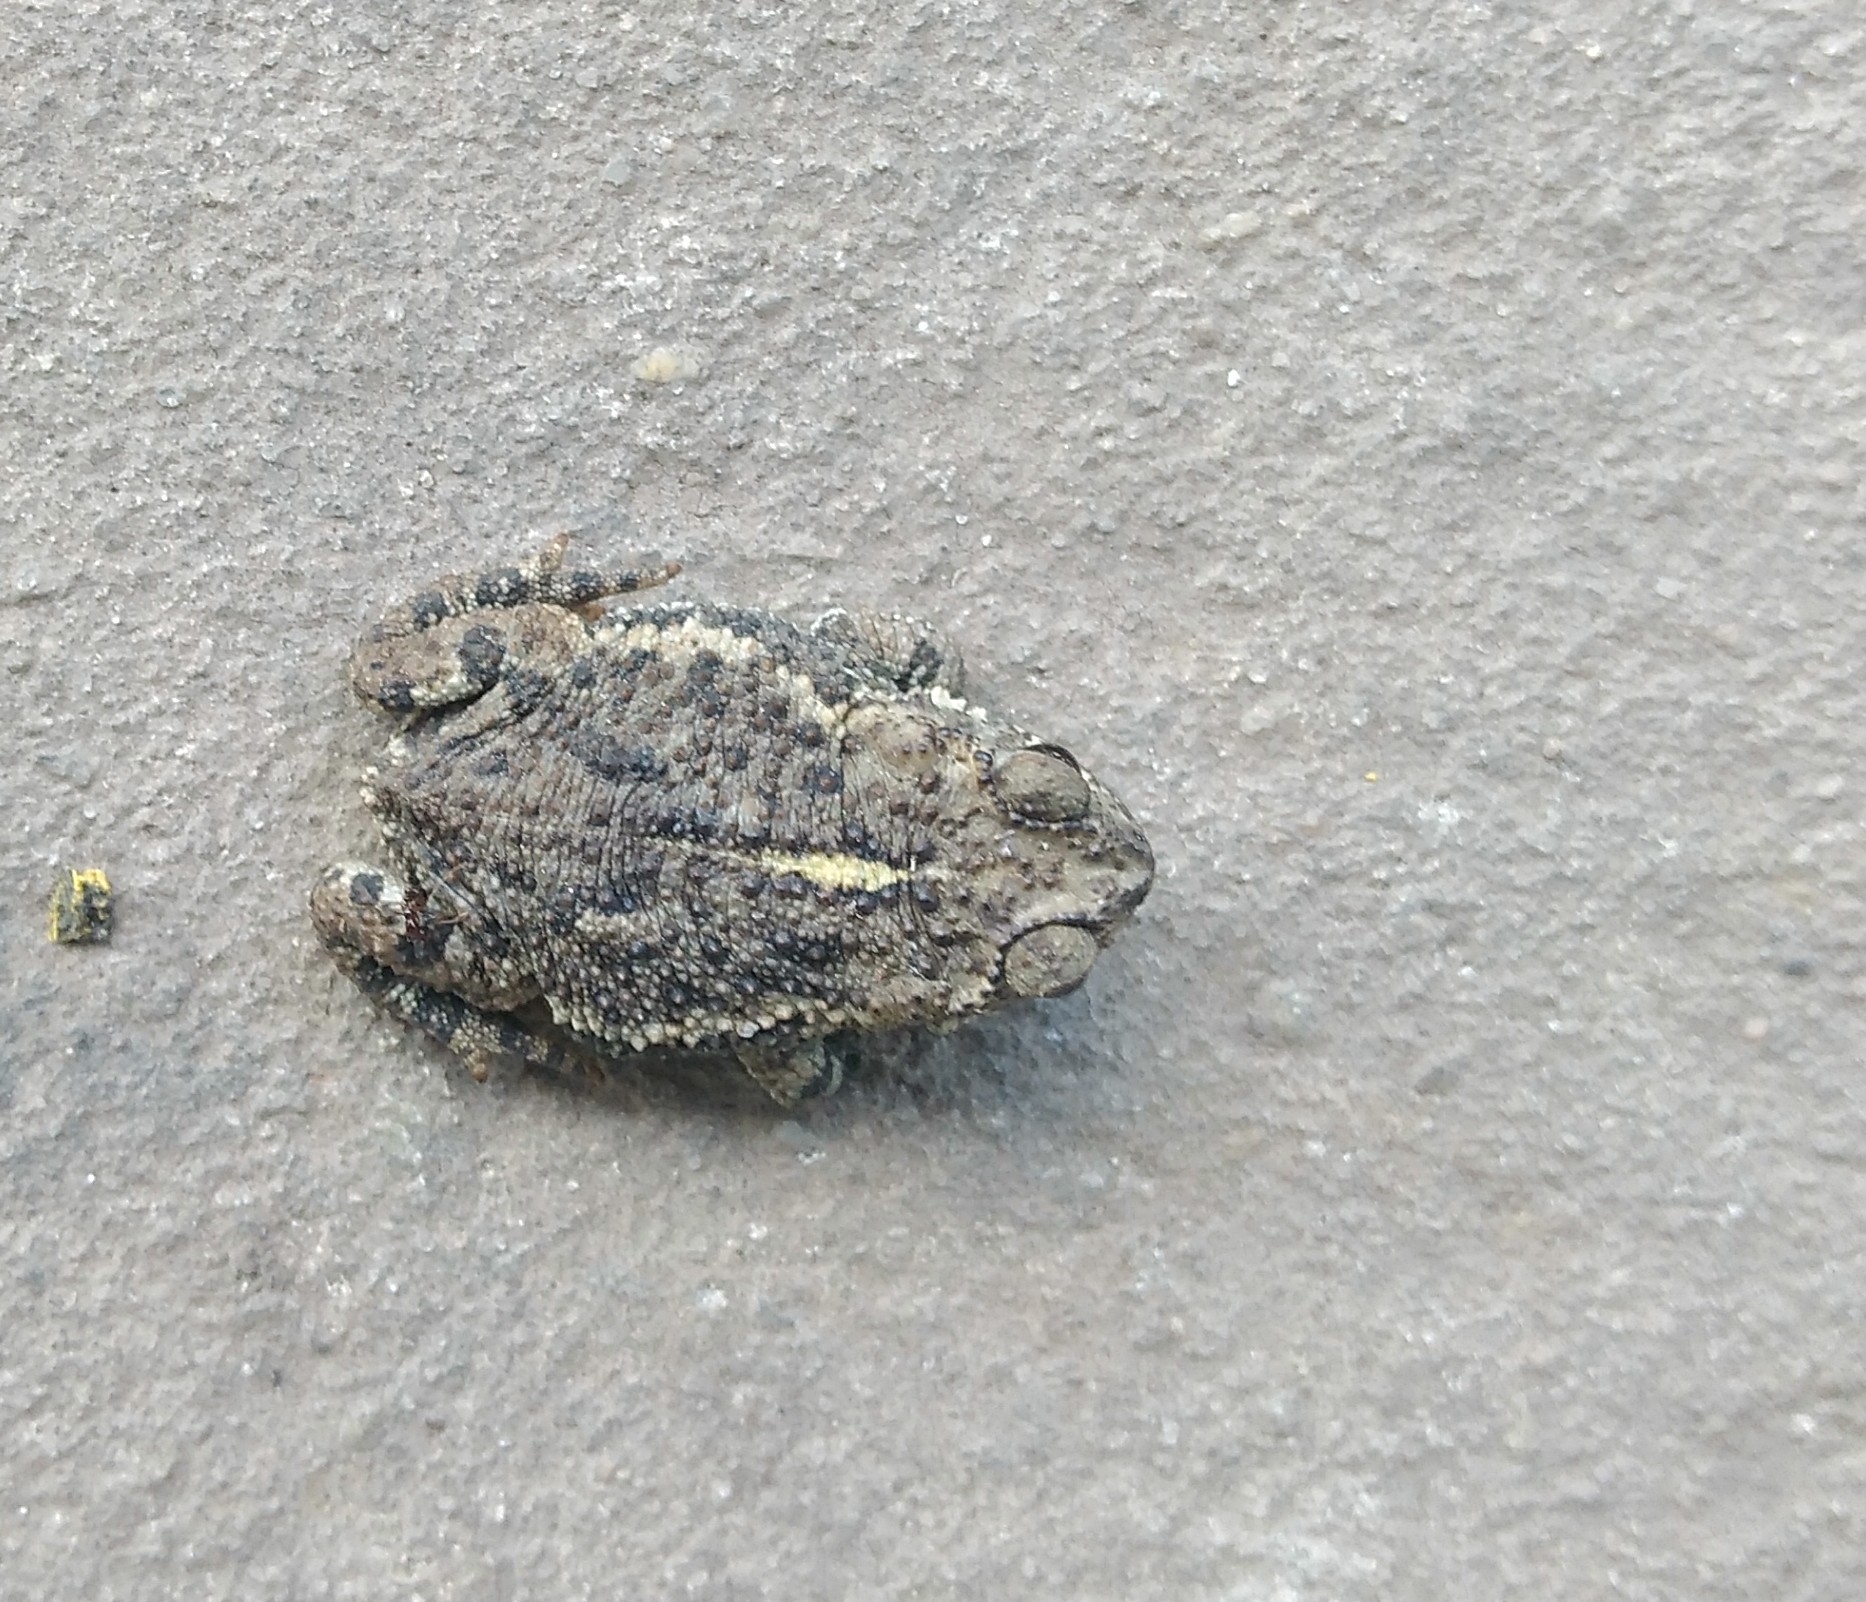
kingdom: Animalia
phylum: Chordata
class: Amphibia
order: Anura
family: Bufonidae
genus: Rhinella
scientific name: Rhinella dorbignyi
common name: D´orbigny’s toad
